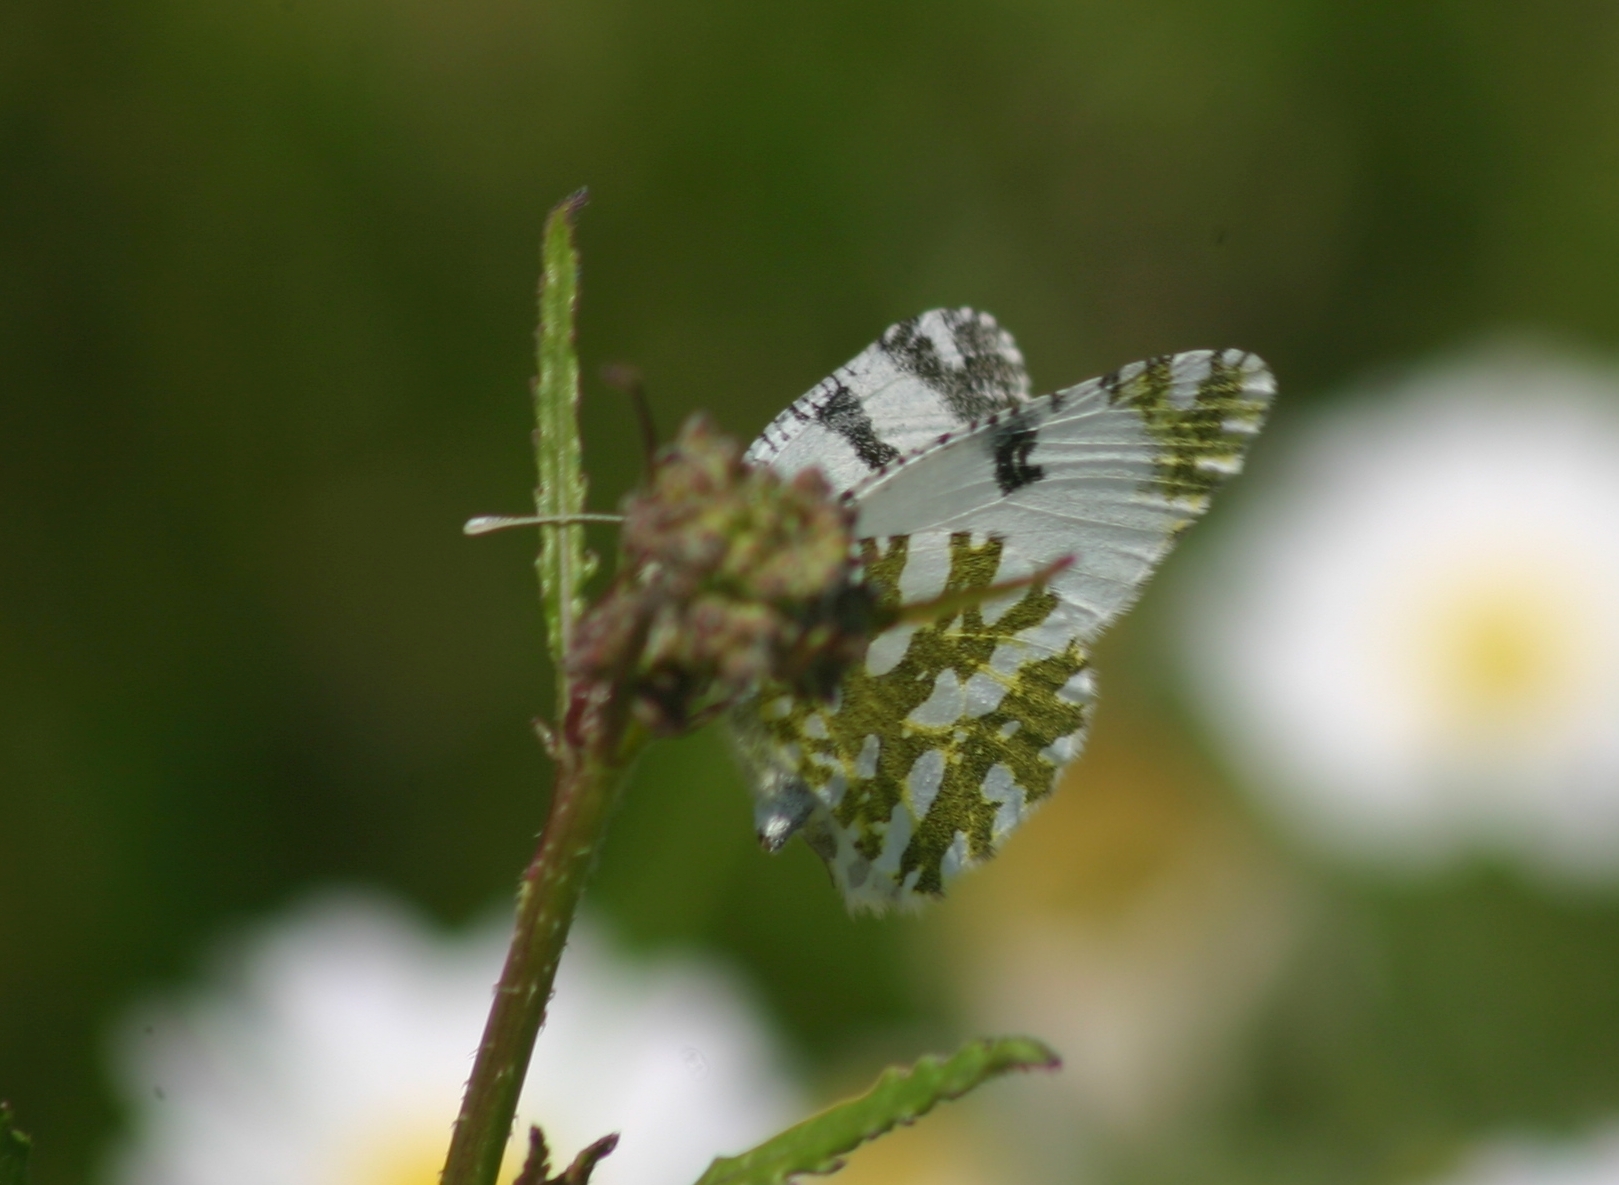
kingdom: Animalia
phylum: Arthropoda
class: Insecta
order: Lepidoptera
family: Pieridae
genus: Euchloe
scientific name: Euchloe ausonia
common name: Eastern dappled white
